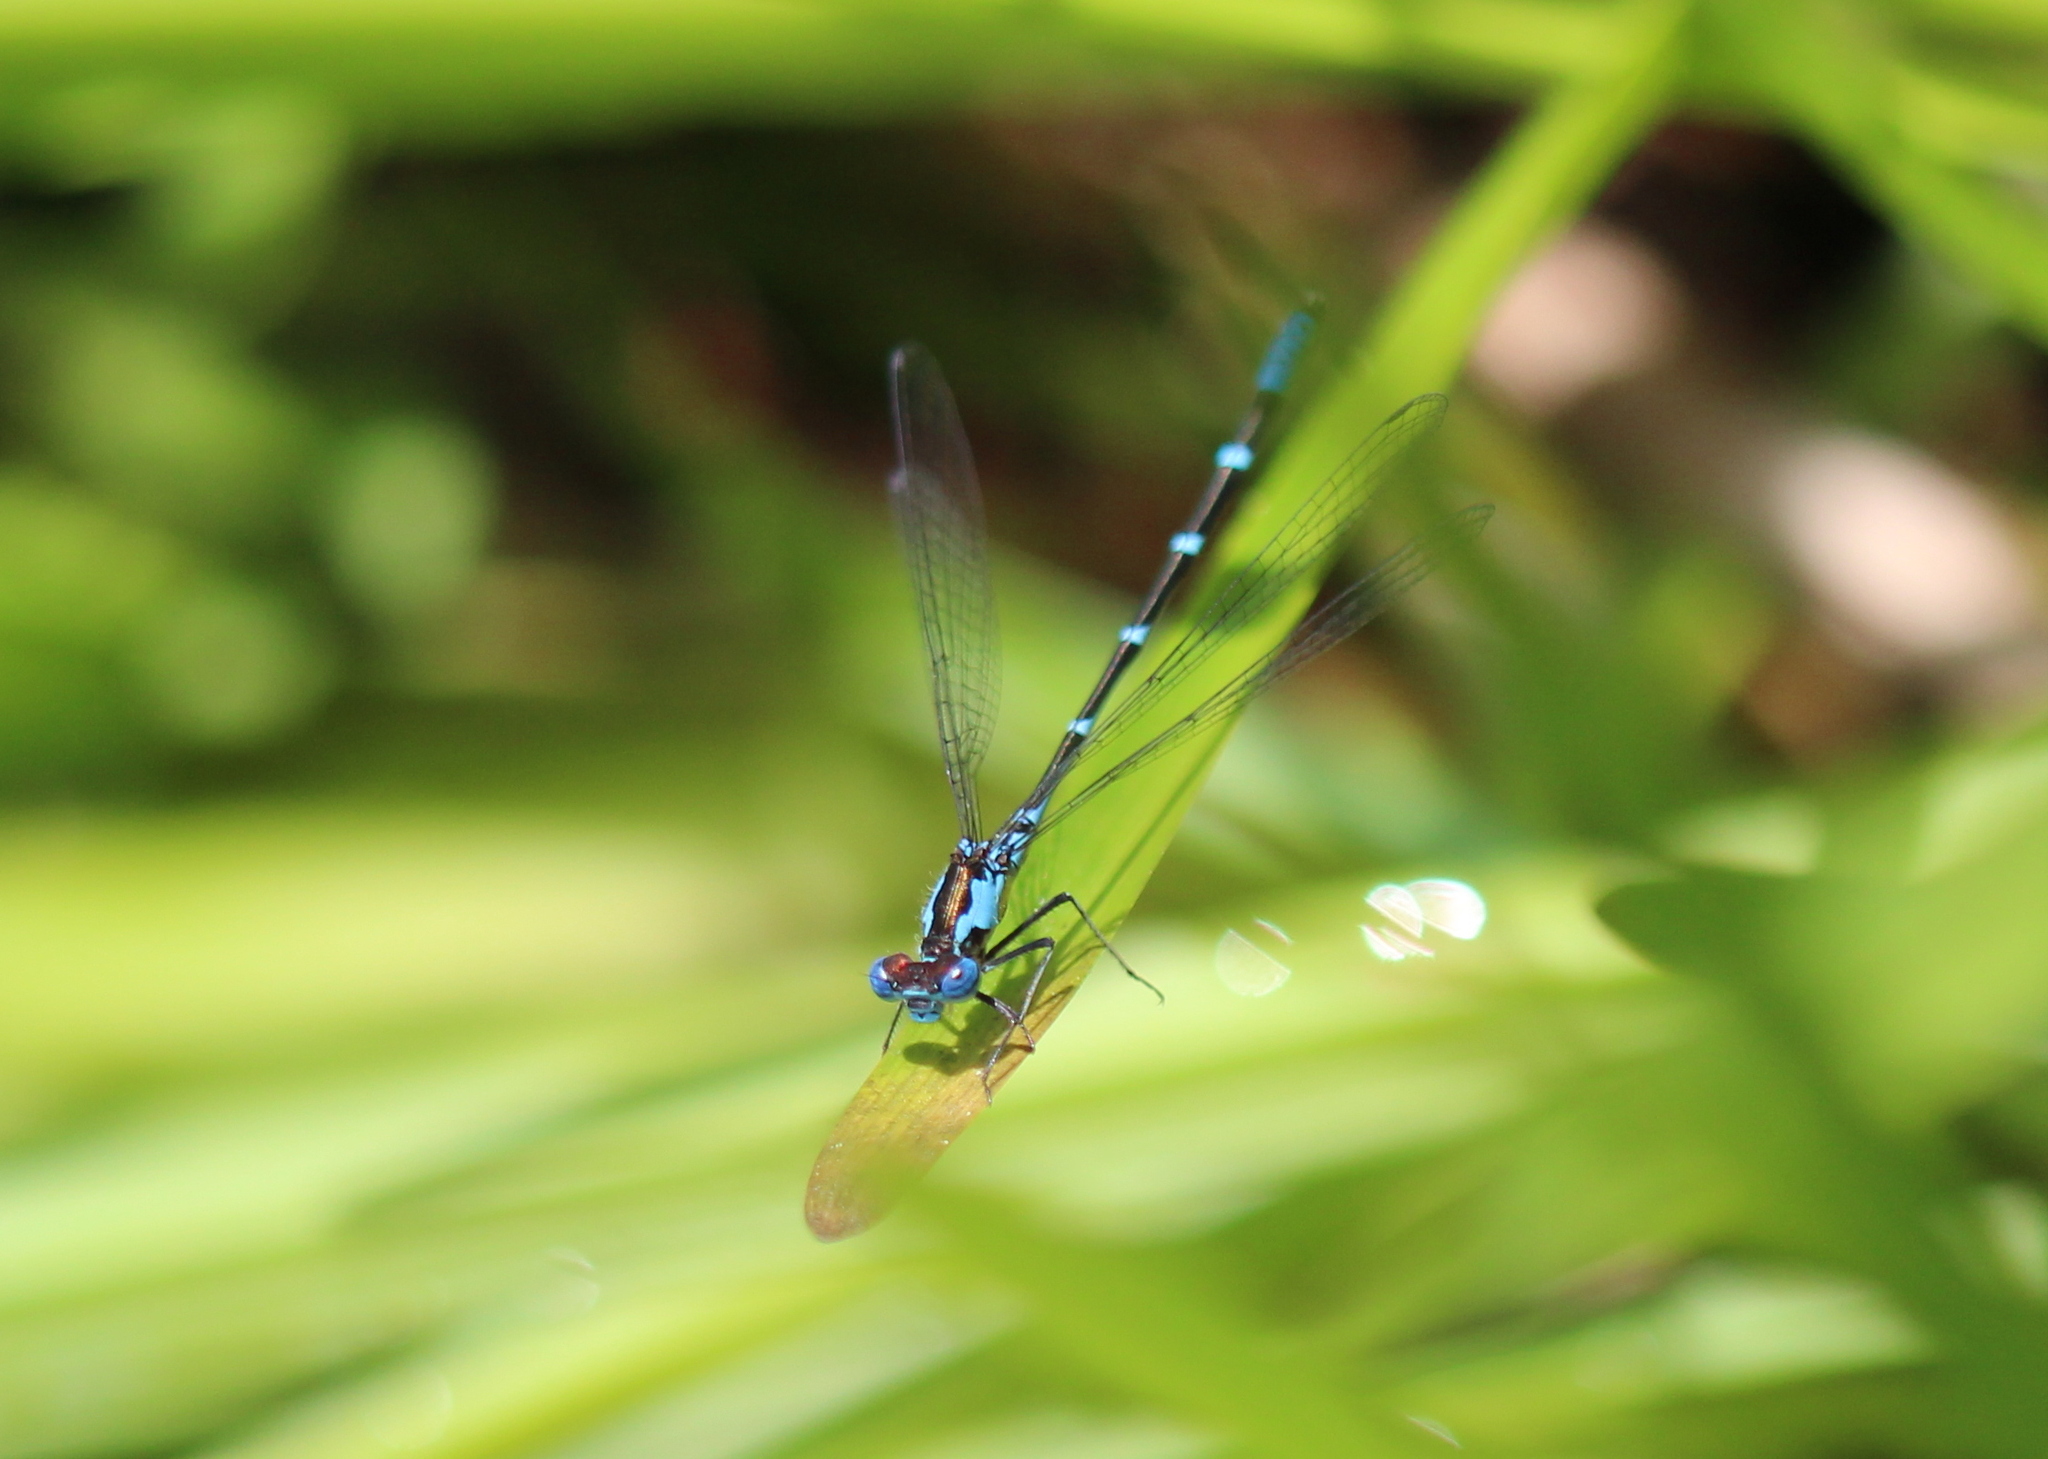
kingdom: Animalia
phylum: Arthropoda
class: Insecta
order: Odonata
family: Coenagrionidae
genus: Chromagrion
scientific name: Chromagrion conditum
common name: Aurora damsel
